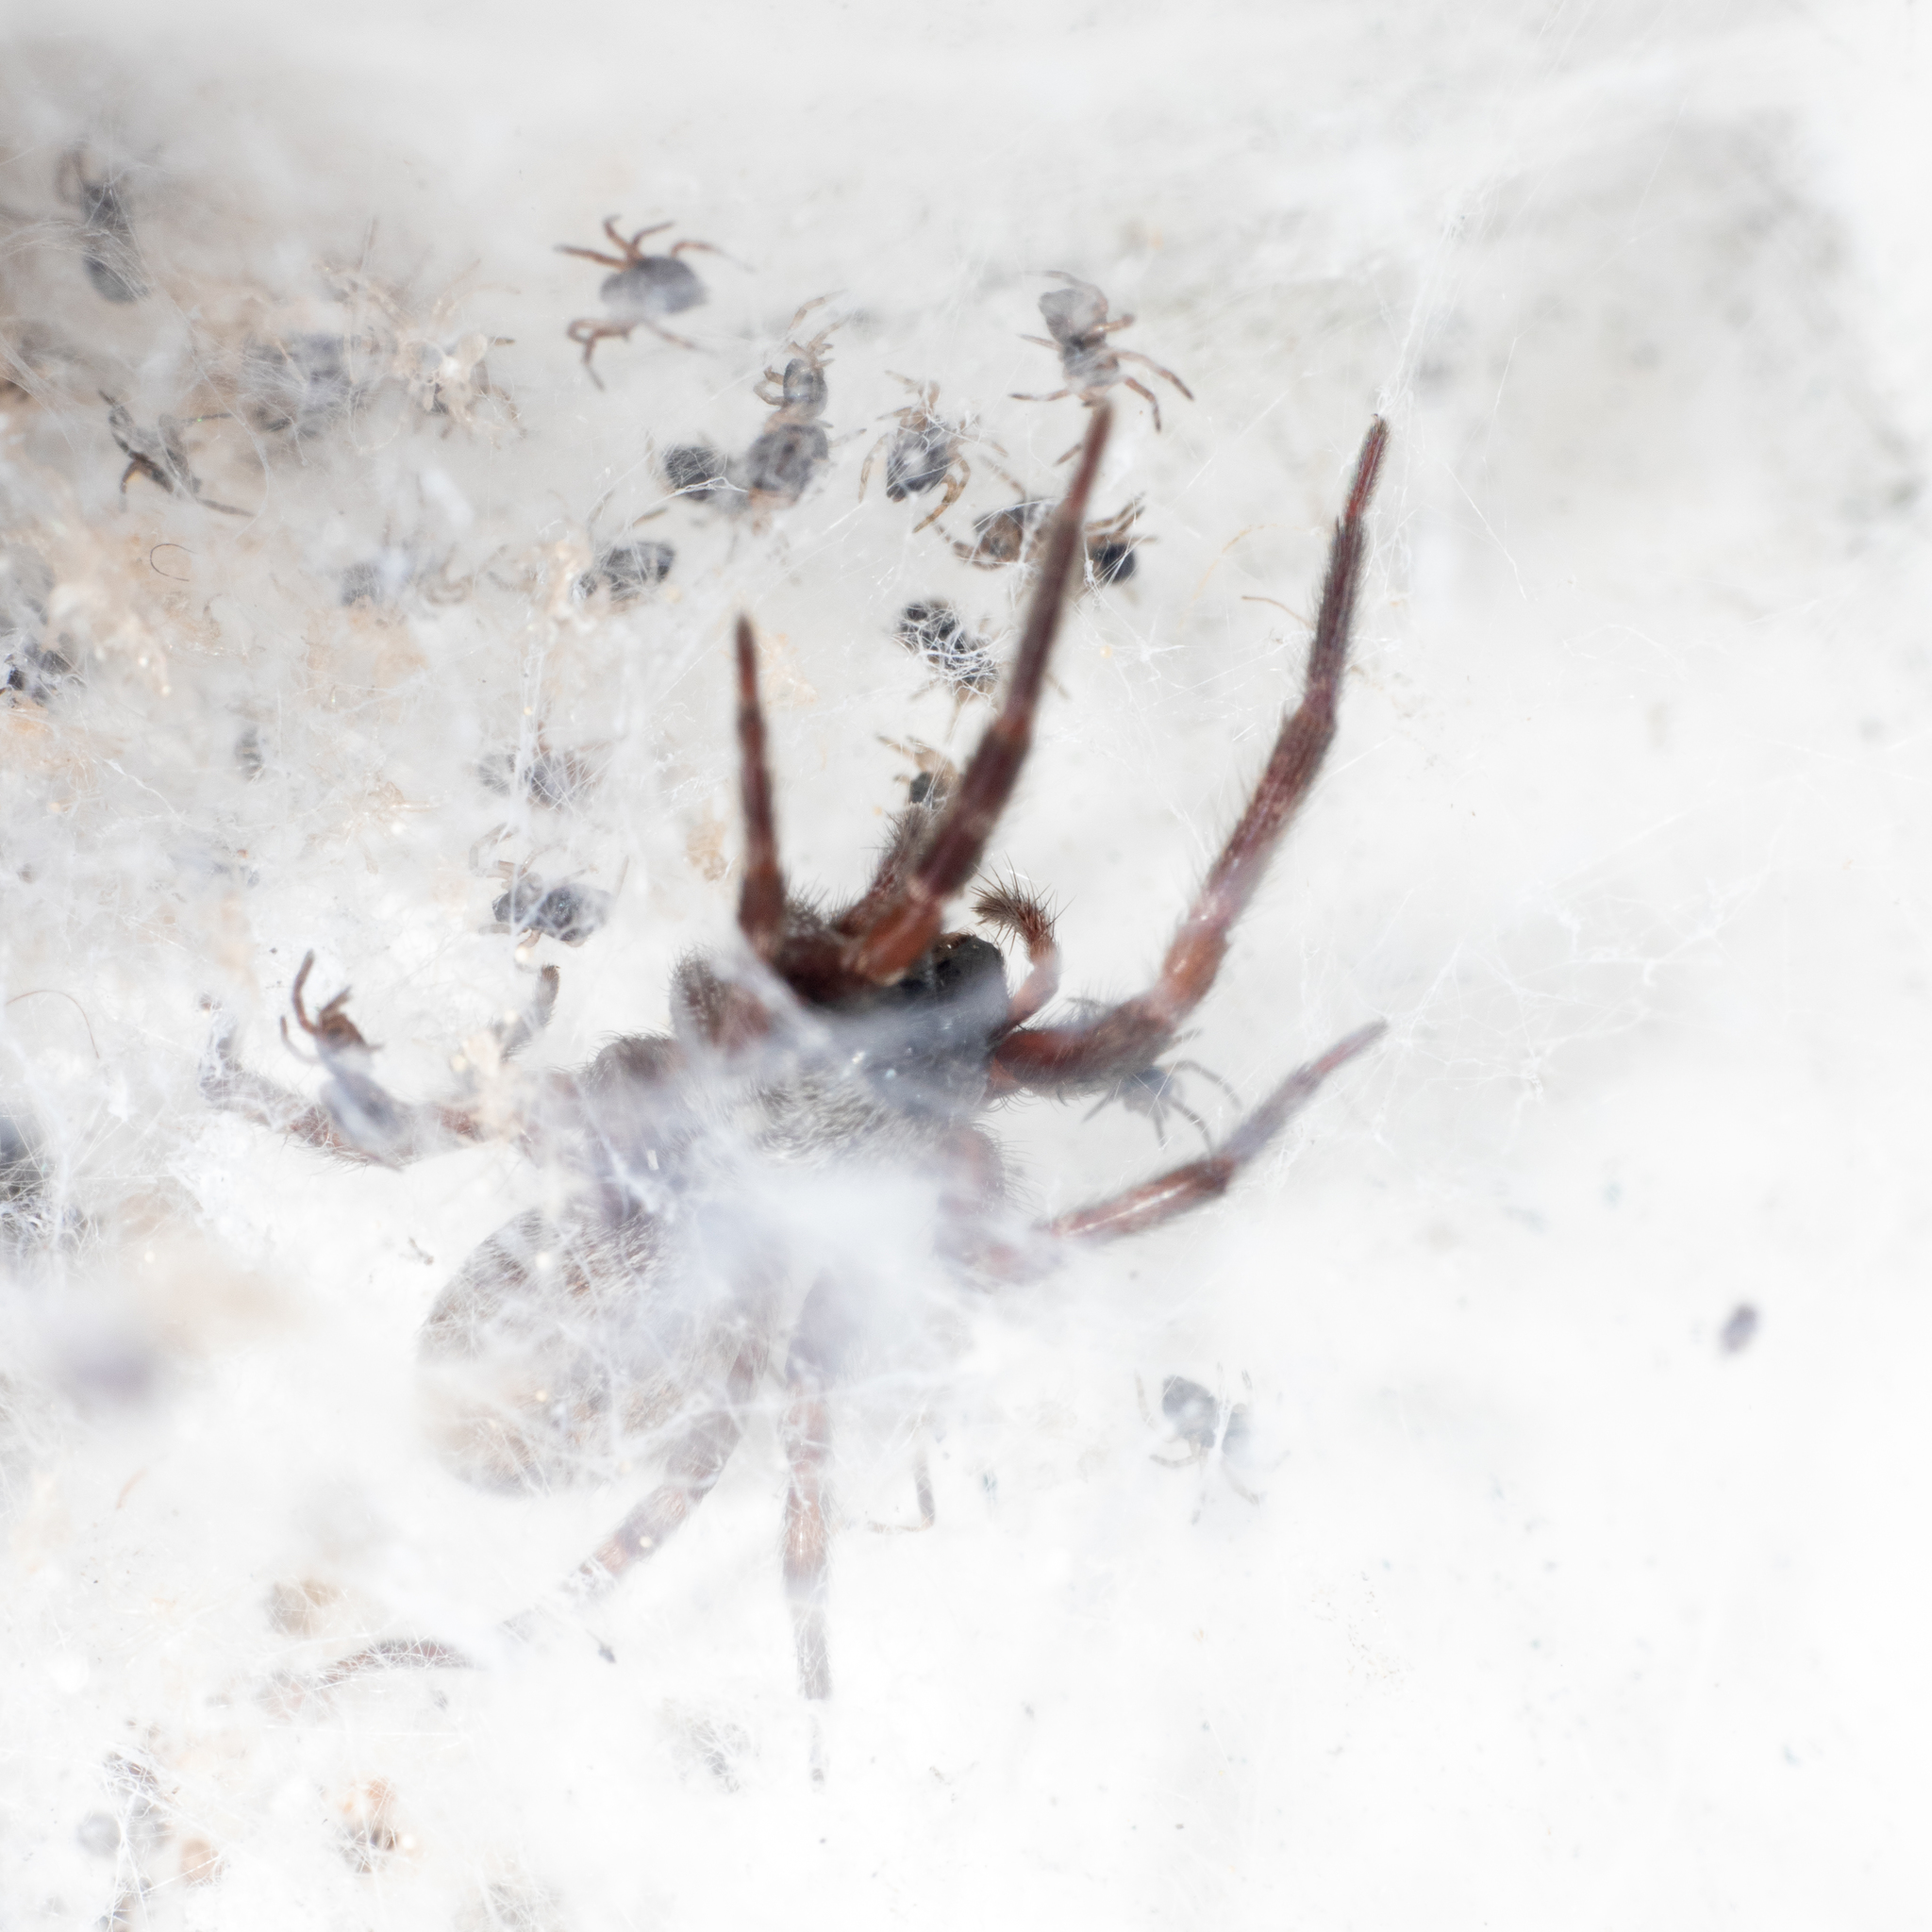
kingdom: Animalia
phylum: Arthropoda
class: Arachnida
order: Araneae
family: Desidae
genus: Badumna
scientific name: Badumna longinqua
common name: Gray house spider
